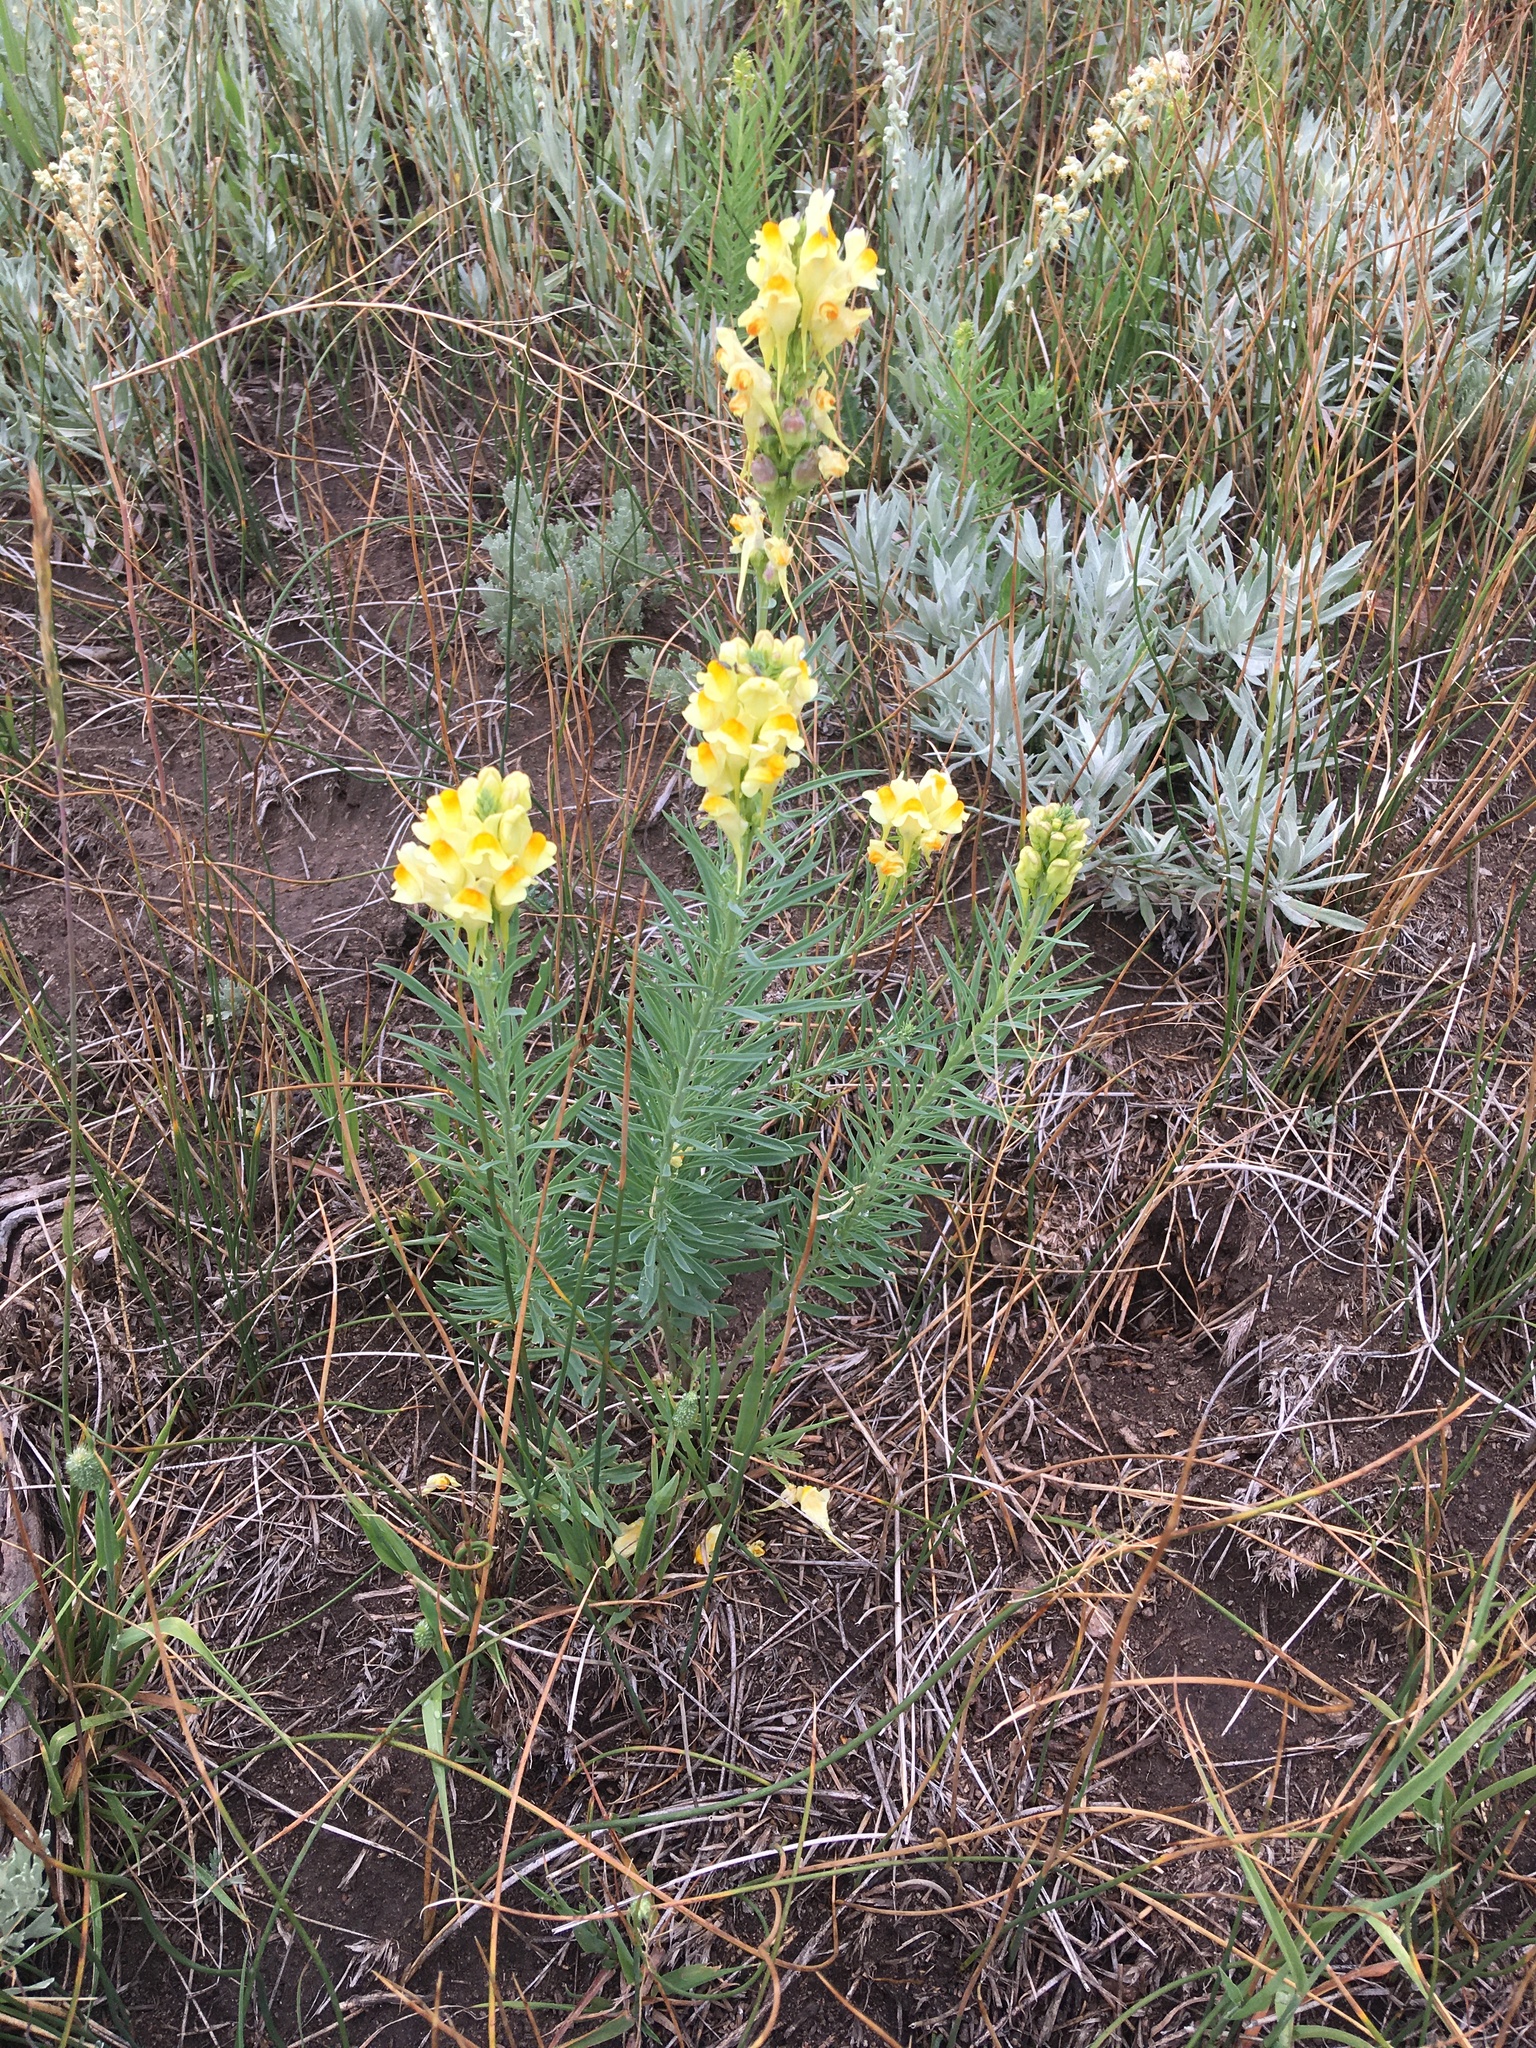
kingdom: Plantae
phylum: Tracheophyta
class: Magnoliopsida
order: Lamiales
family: Plantaginaceae
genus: Linaria
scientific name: Linaria vulgaris
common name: Butter and eggs
